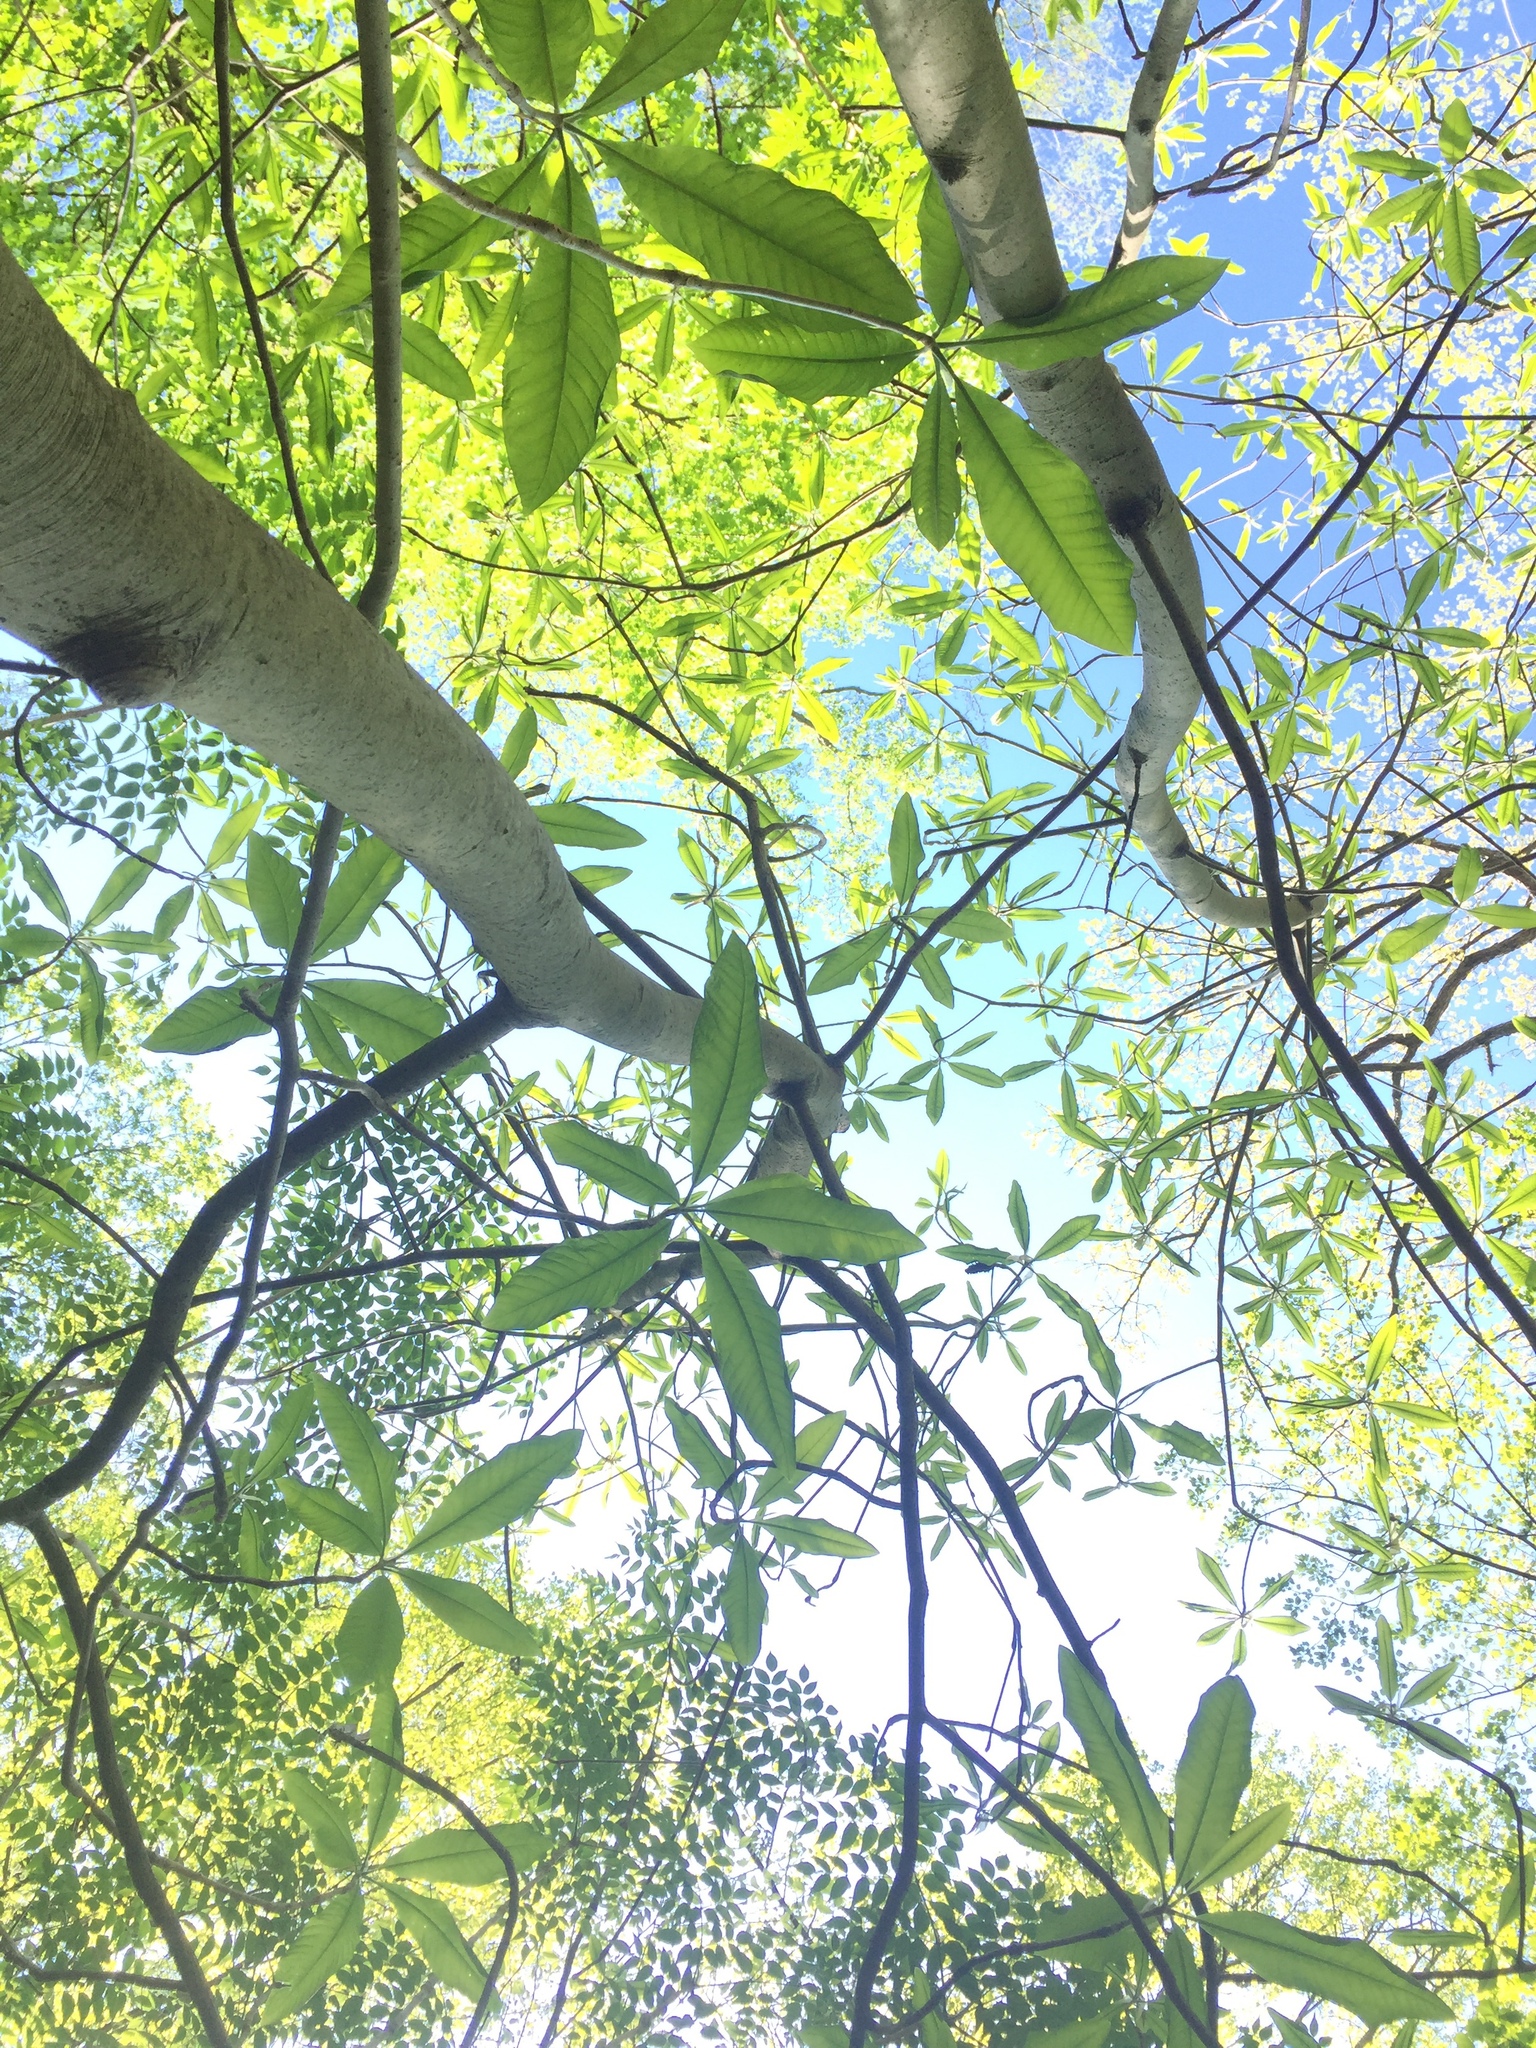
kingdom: Plantae
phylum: Tracheophyta
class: Magnoliopsida
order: Magnoliales
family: Magnoliaceae
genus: Magnolia
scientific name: Magnolia tripetala
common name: Umbrella magnolia
